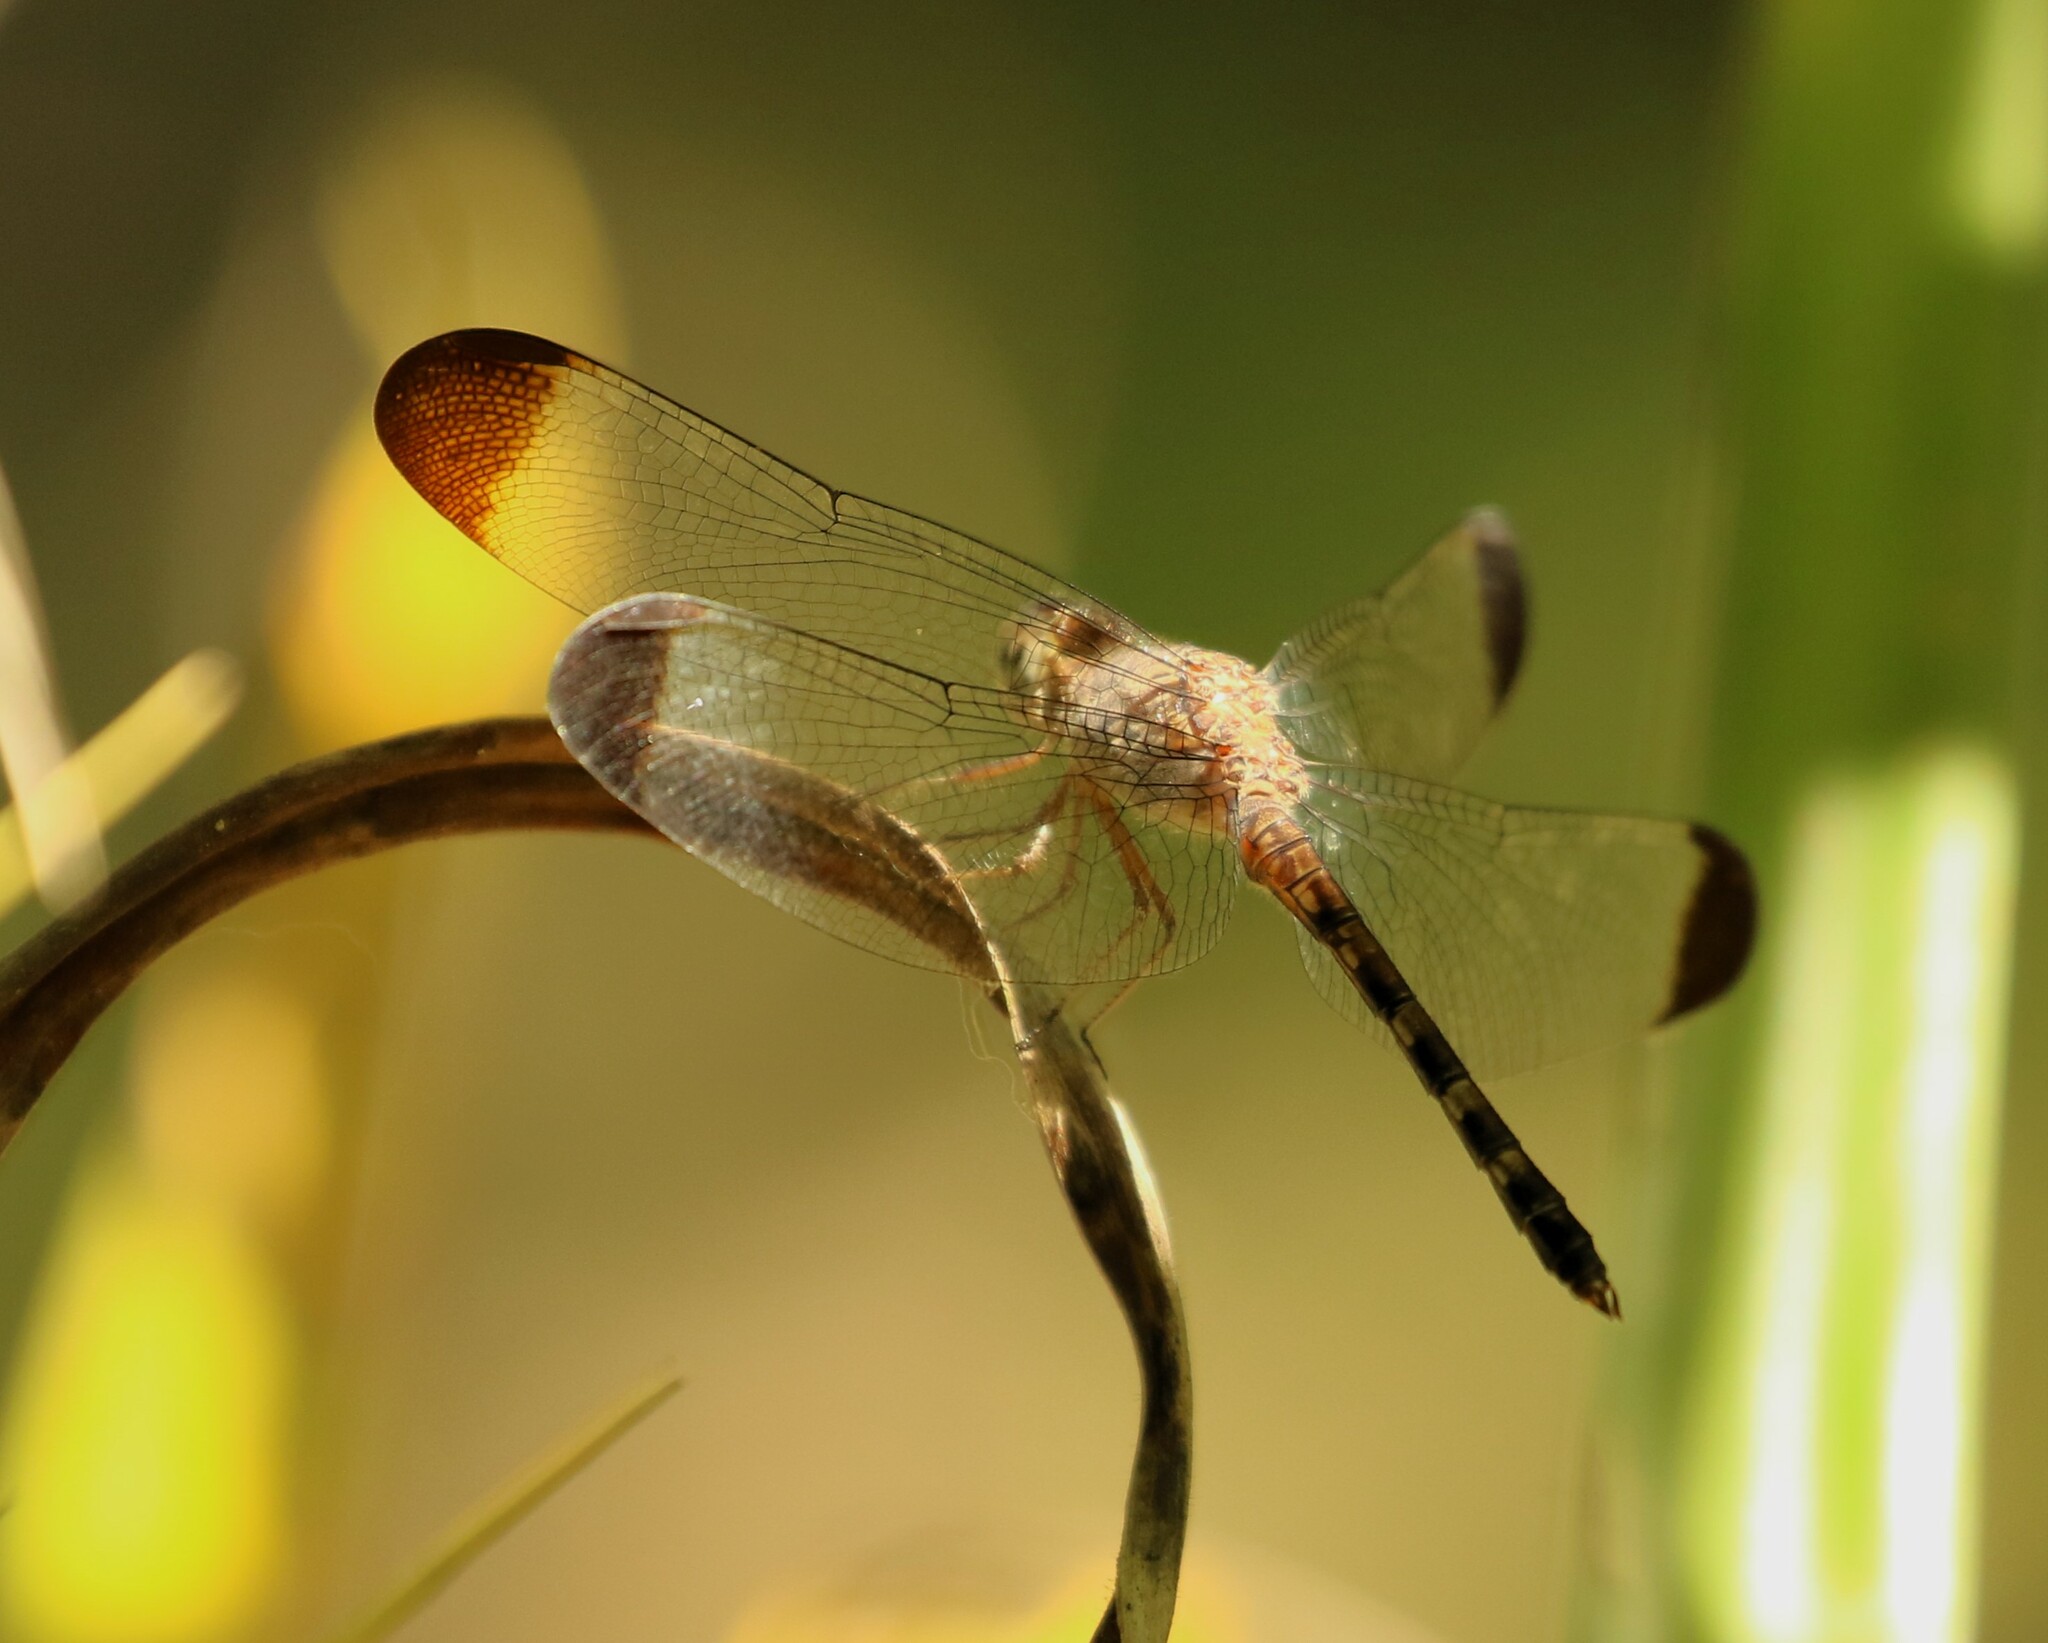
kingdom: Animalia
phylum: Arthropoda
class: Insecta
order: Odonata
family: Libellulidae
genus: Uracis
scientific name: Uracis imbuta
